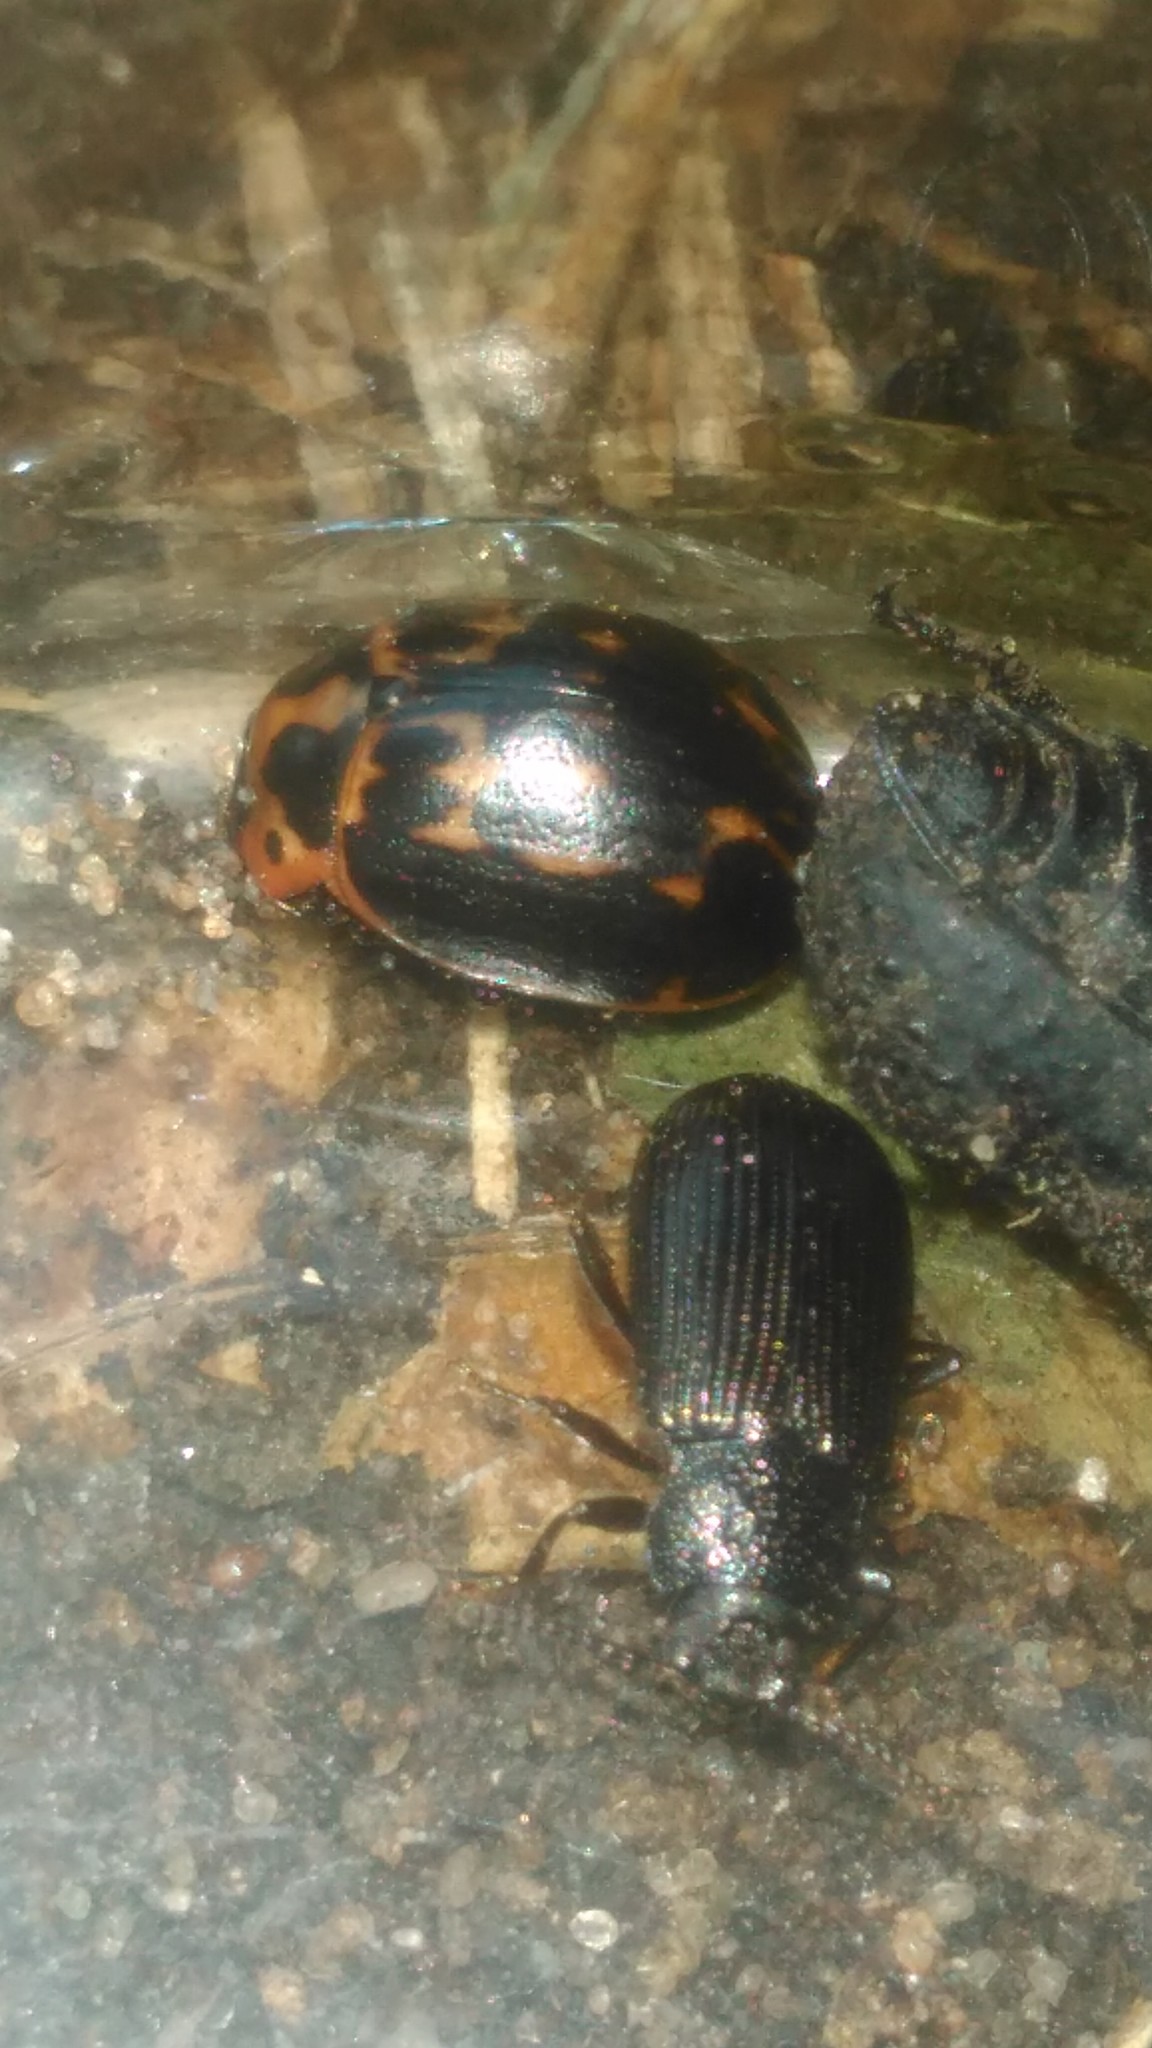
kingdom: Animalia
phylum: Arthropoda
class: Insecta
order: Coleoptera
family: Chrysomelidae
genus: Platyphora
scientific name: Platyphora
